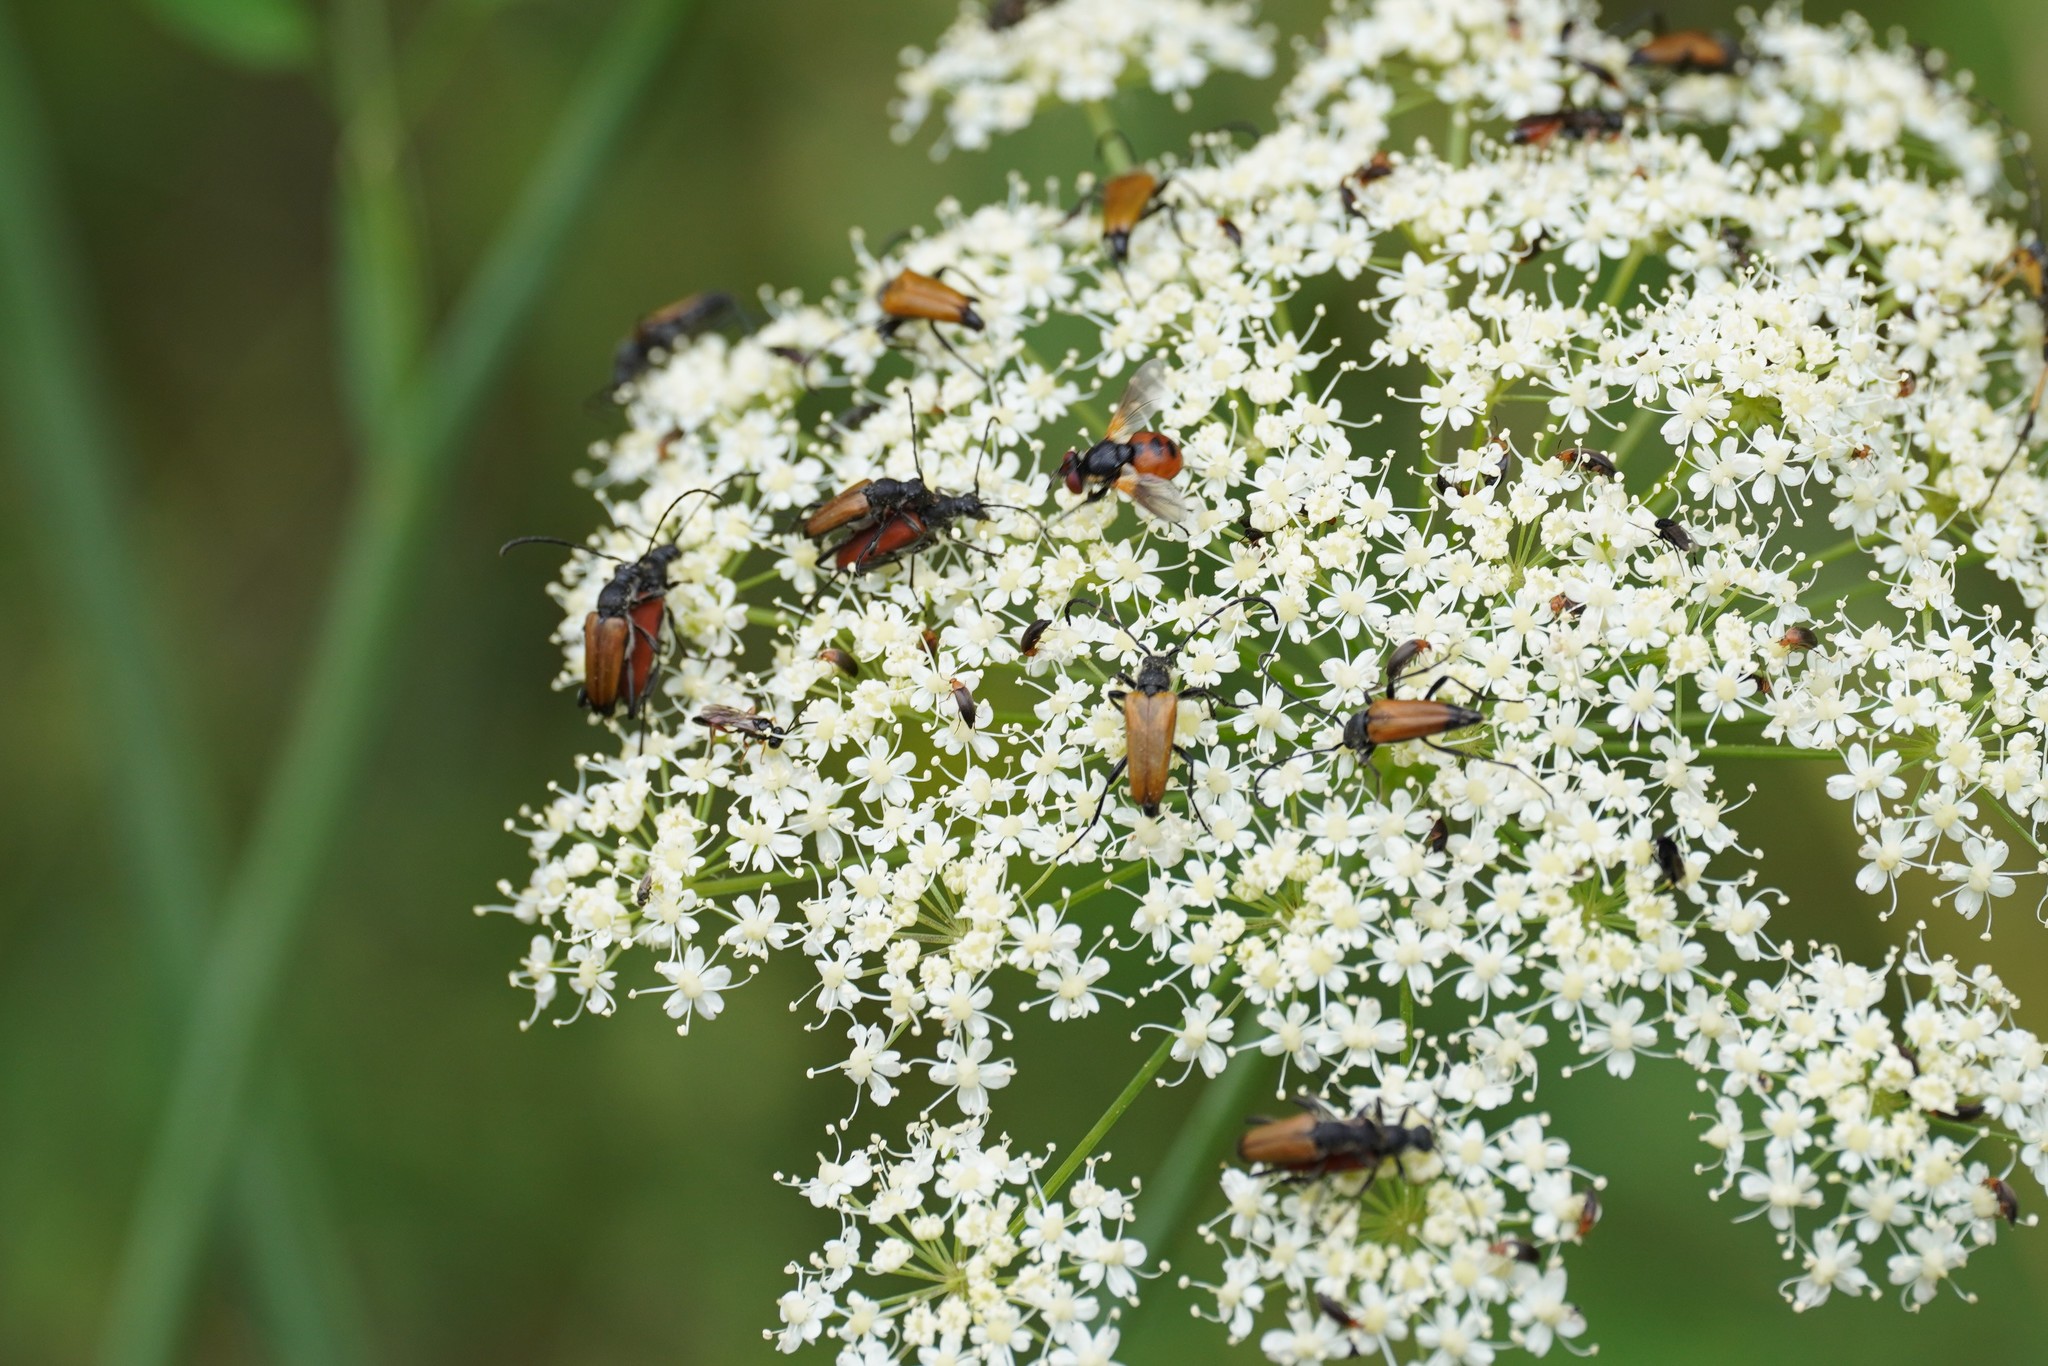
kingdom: Animalia
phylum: Arthropoda
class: Insecta
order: Coleoptera
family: Cerambycidae
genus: Anastrangalia
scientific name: Anastrangalia sanguinolenta
